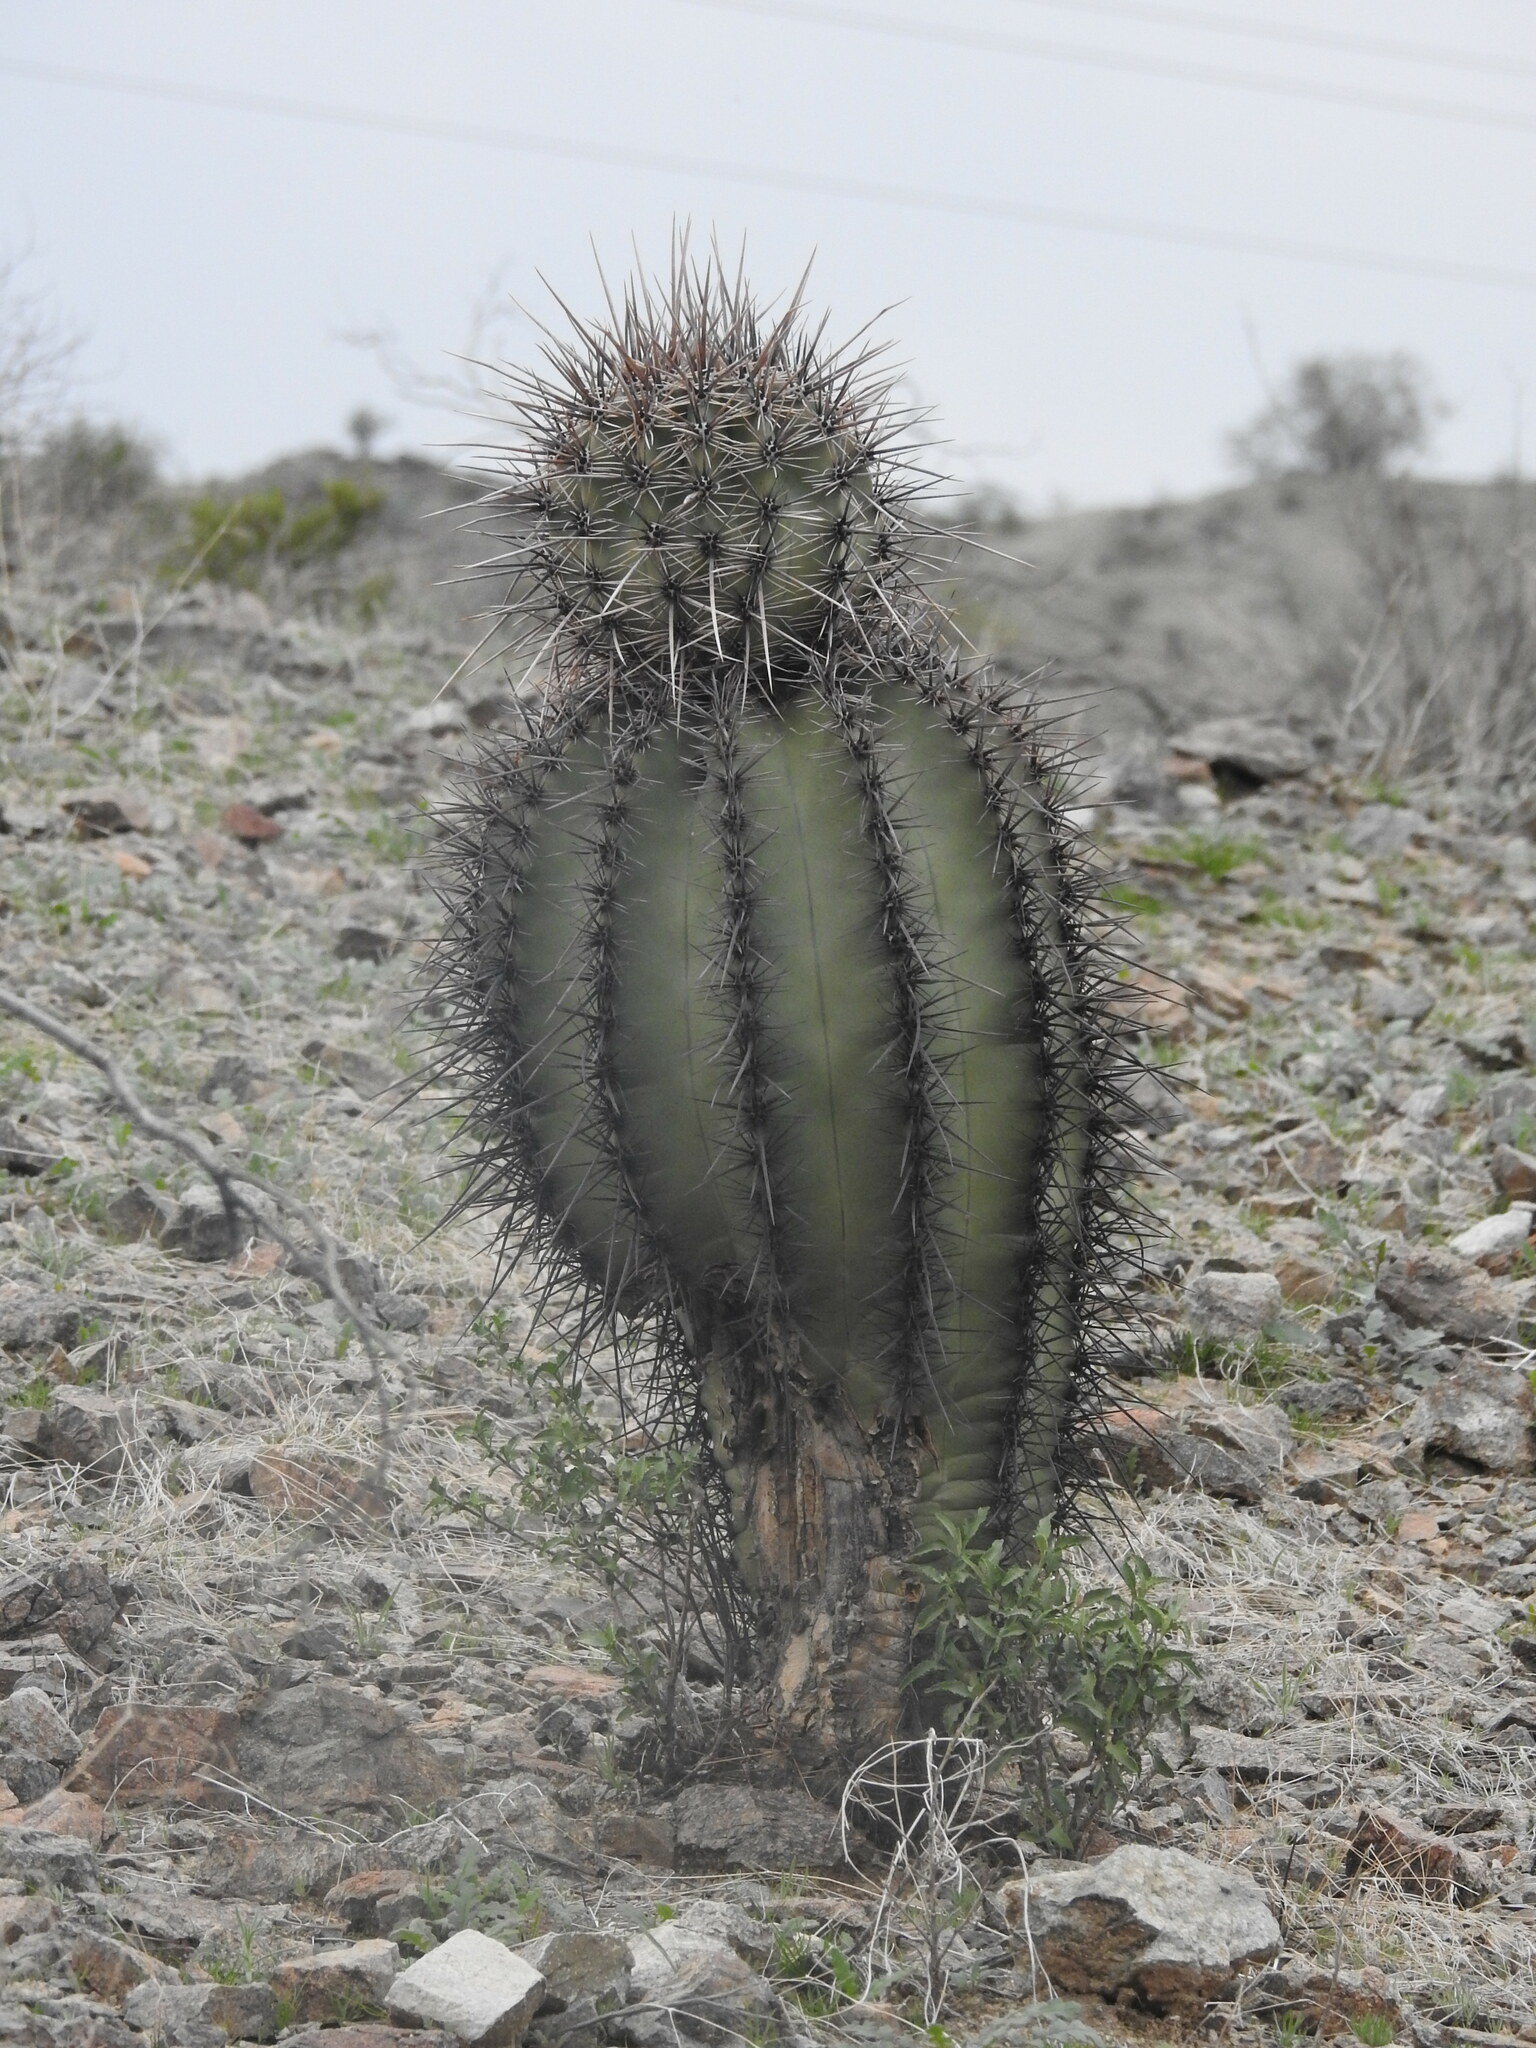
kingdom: Plantae
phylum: Tracheophyta
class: Magnoliopsida
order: Caryophyllales
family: Cactaceae
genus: Carnegiea
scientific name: Carnegiea gigantea
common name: Saguaro
